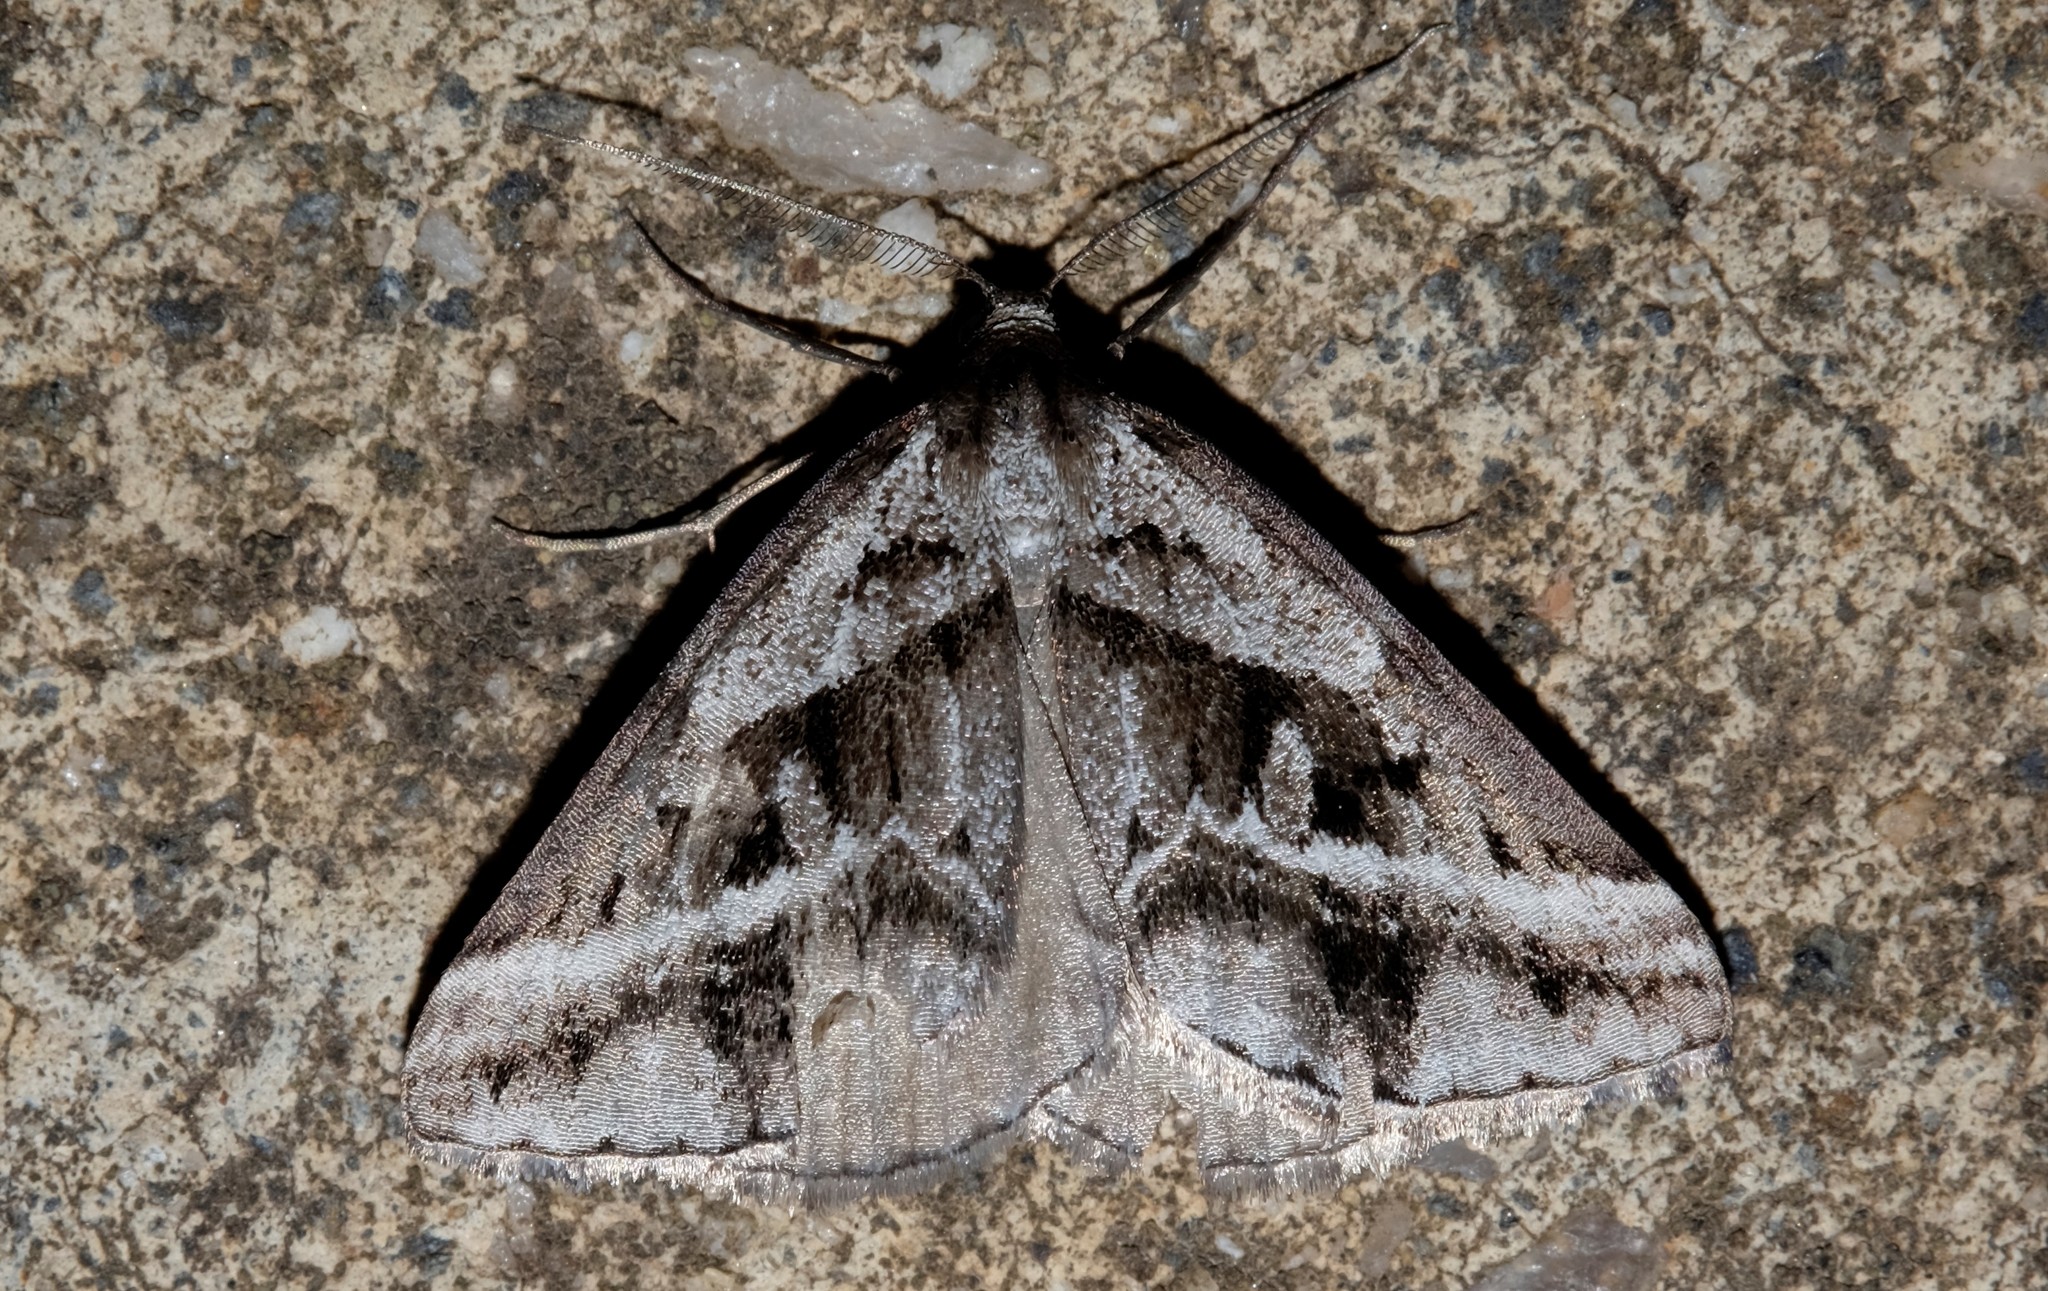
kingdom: Animalia
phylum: Arthropoda
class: Insecta
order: Lepidoptera
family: Geometridae
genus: Dichromodes
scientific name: Dichromodes stilbiata
